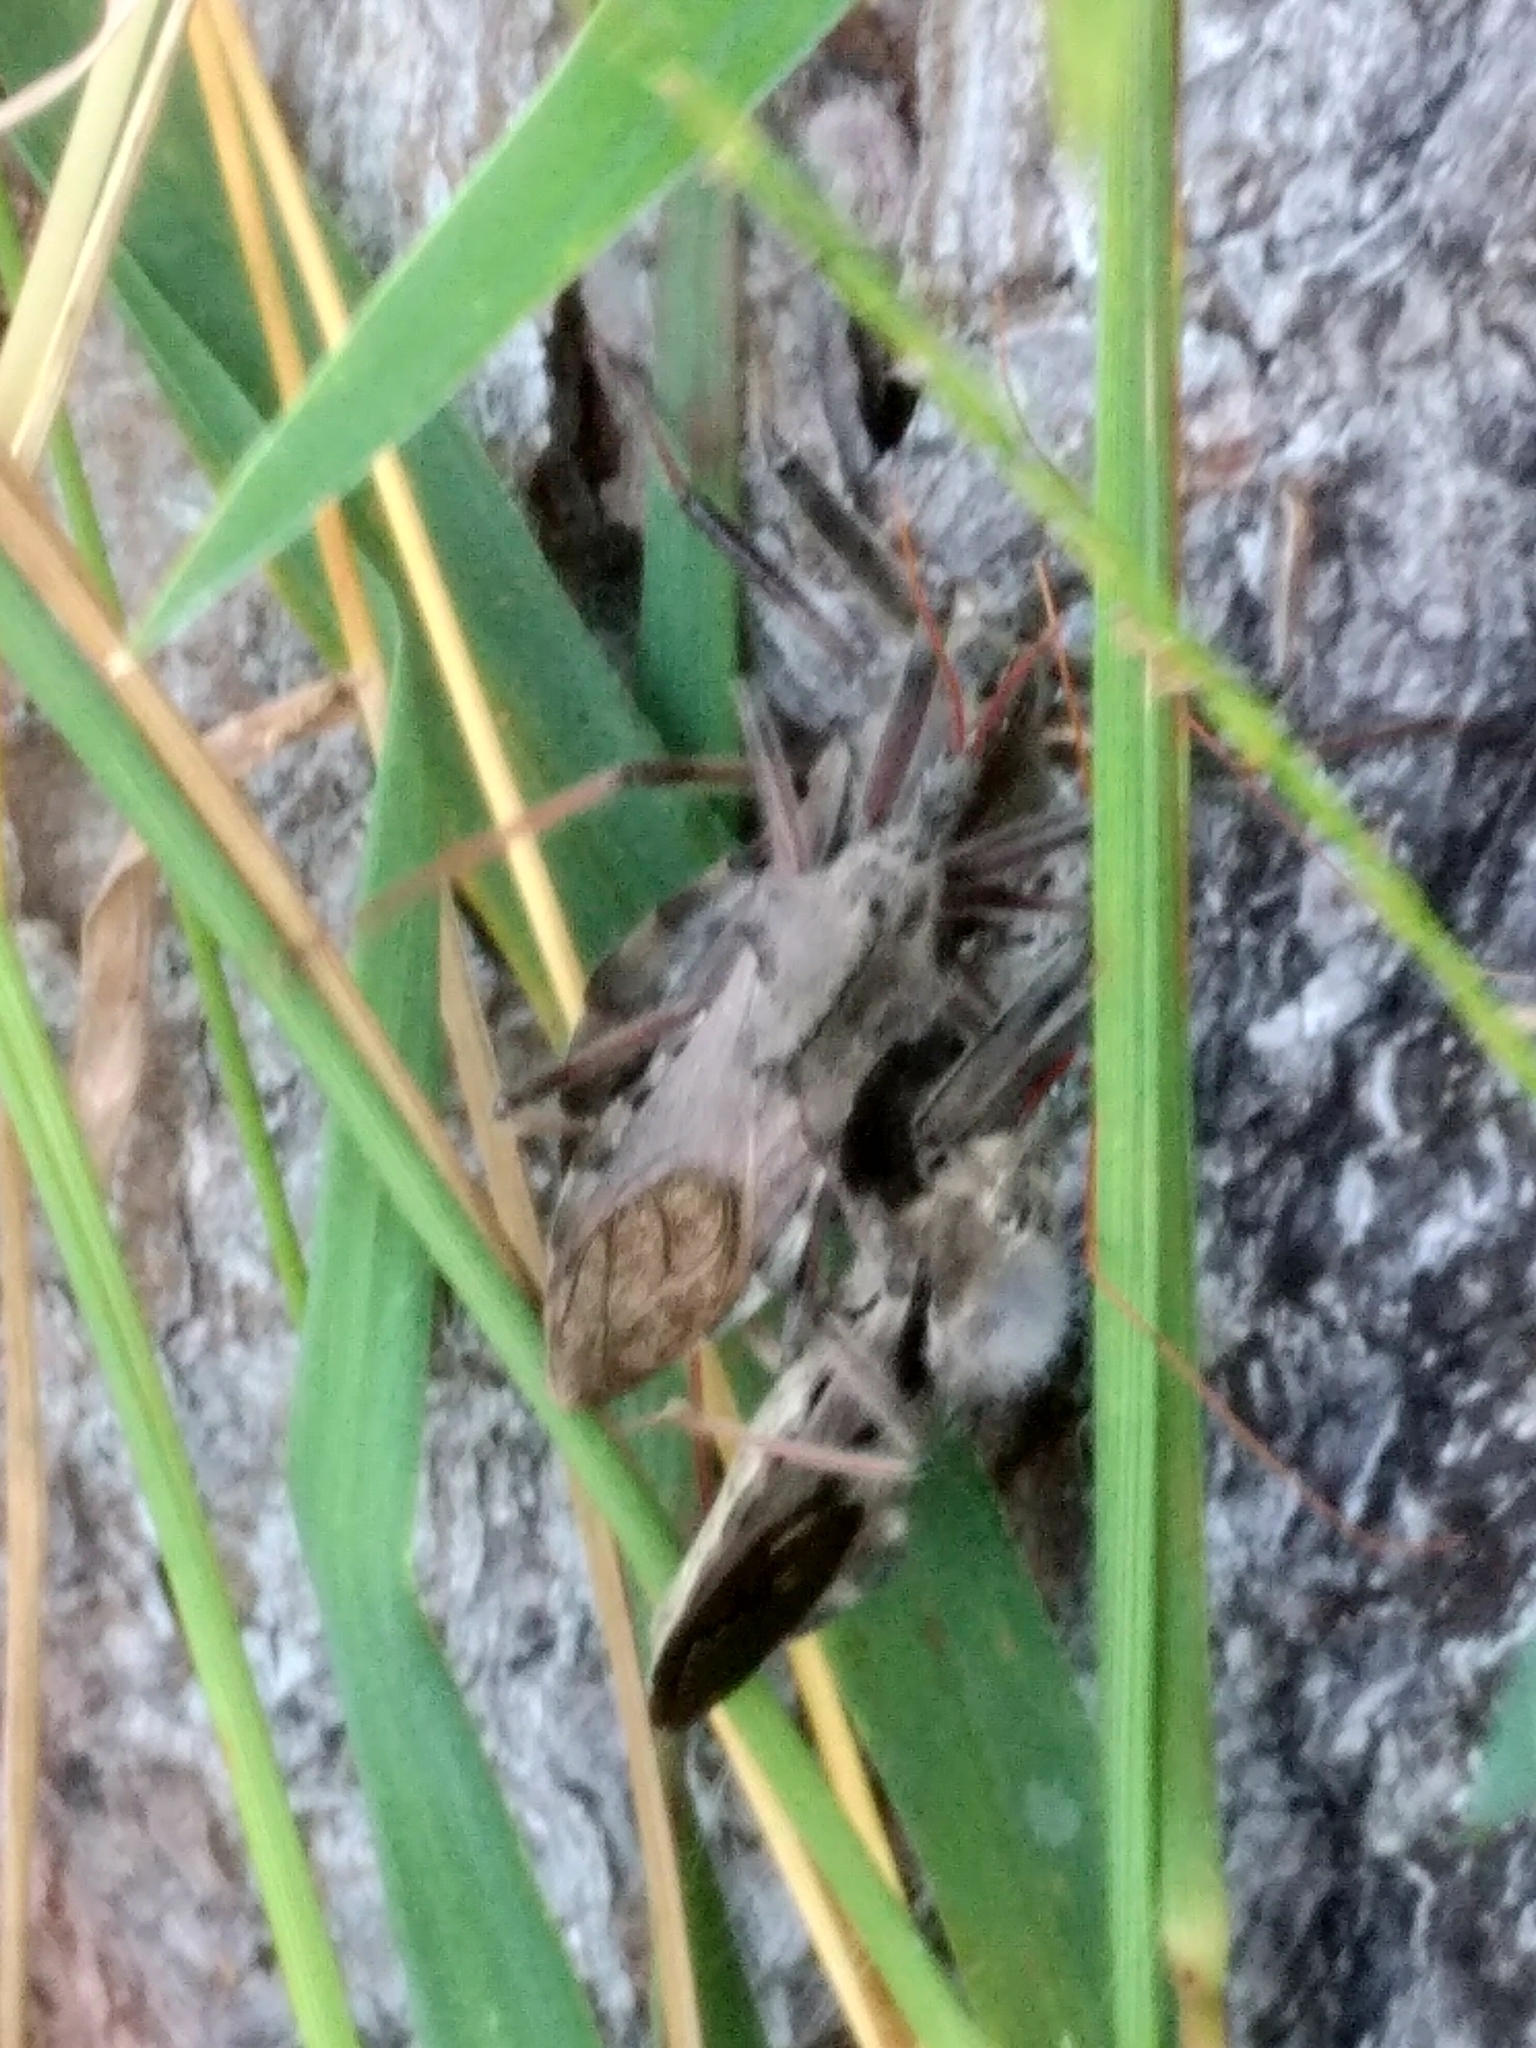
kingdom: Animalia
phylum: Arthropoda
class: Insecta
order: Hemiptera
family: Reduviidae
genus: Arilus
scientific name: Arilus cristatus
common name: North american wheel bug
